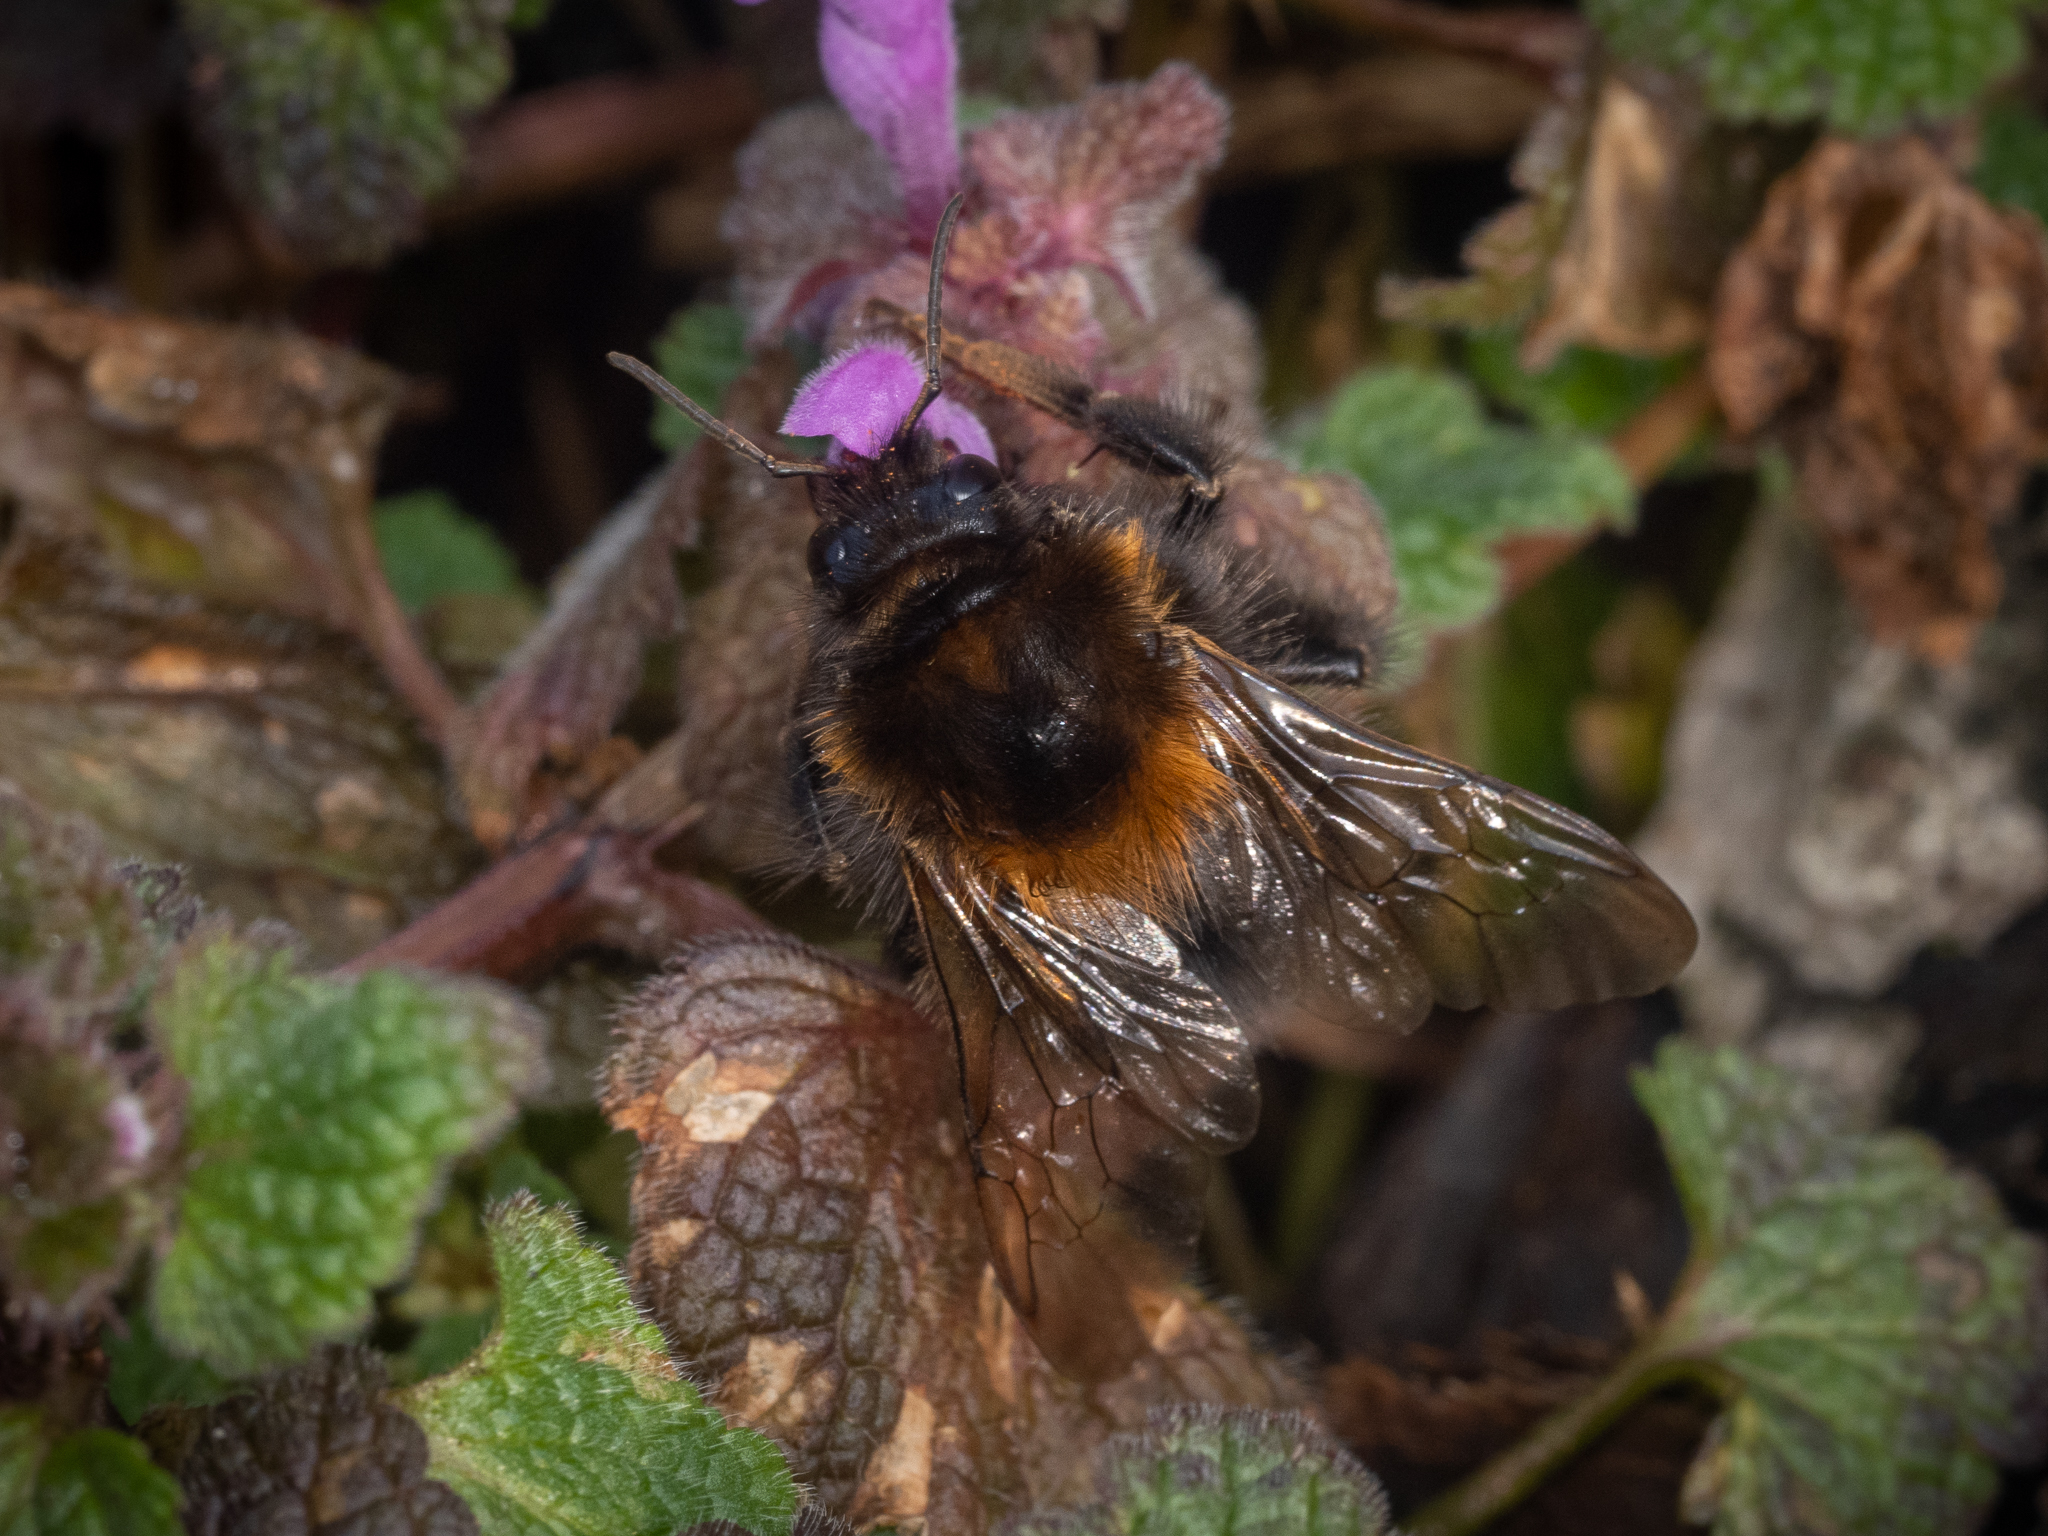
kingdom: Animalia
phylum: Arthropoda
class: Insecta
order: Hymenoptera
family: Apidae
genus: Bombus
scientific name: Bombus hypnorum
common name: New garden bumblebee
